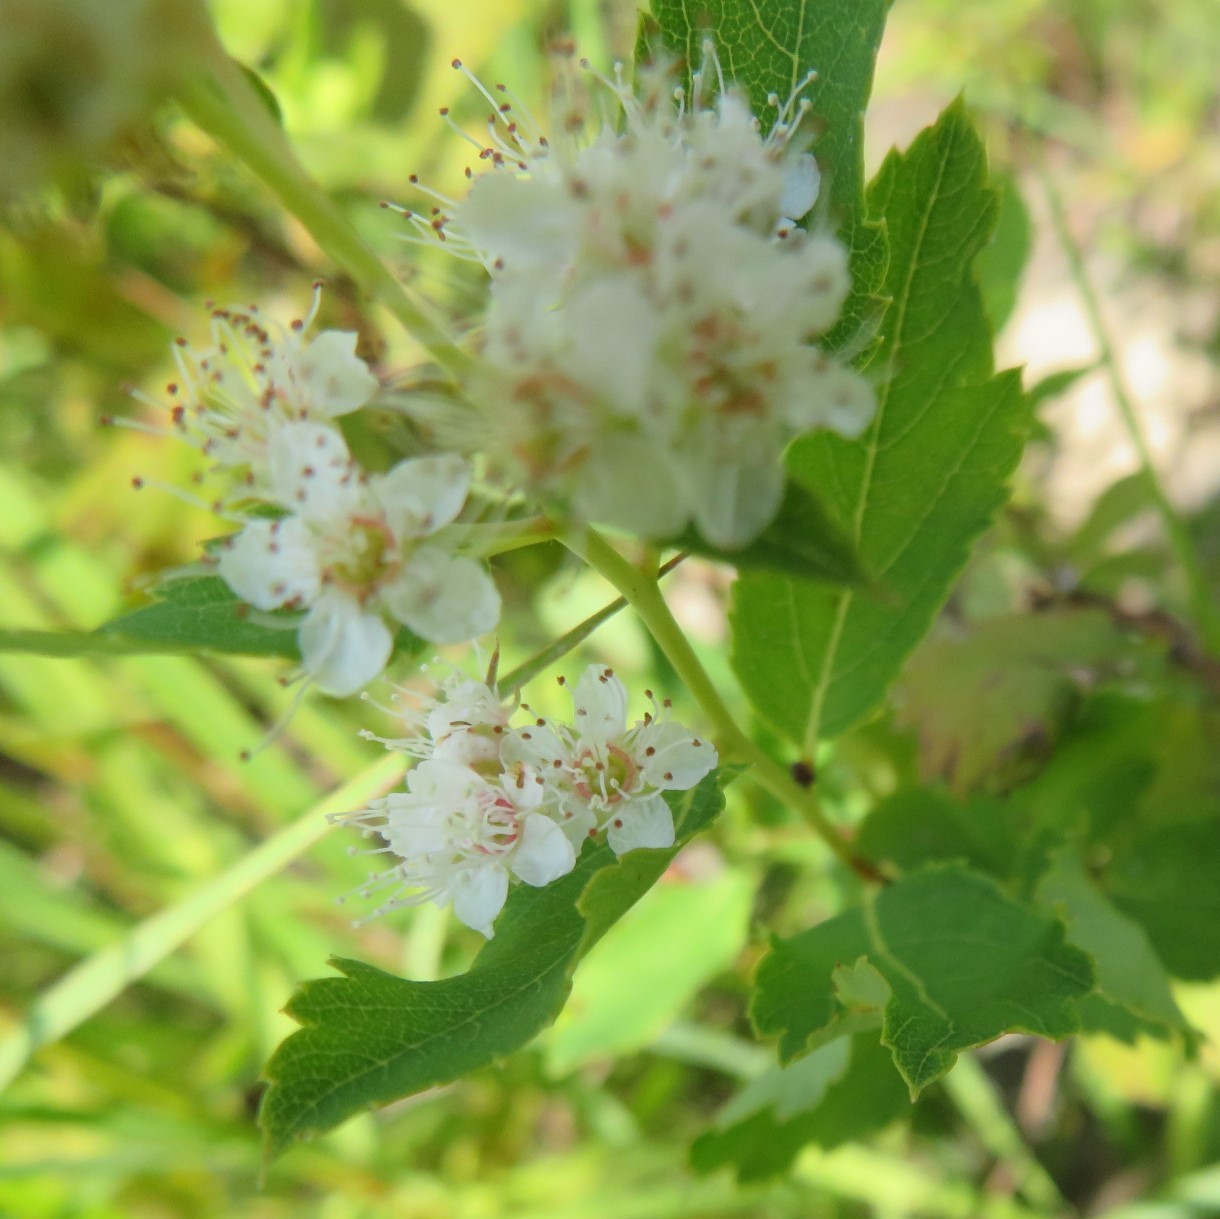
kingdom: Plantae
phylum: Tracheophyta
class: Magnoliopsida
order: Rosales
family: Rosaceae
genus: Spiraea
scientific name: Spiraea alba
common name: Pale bridewort
